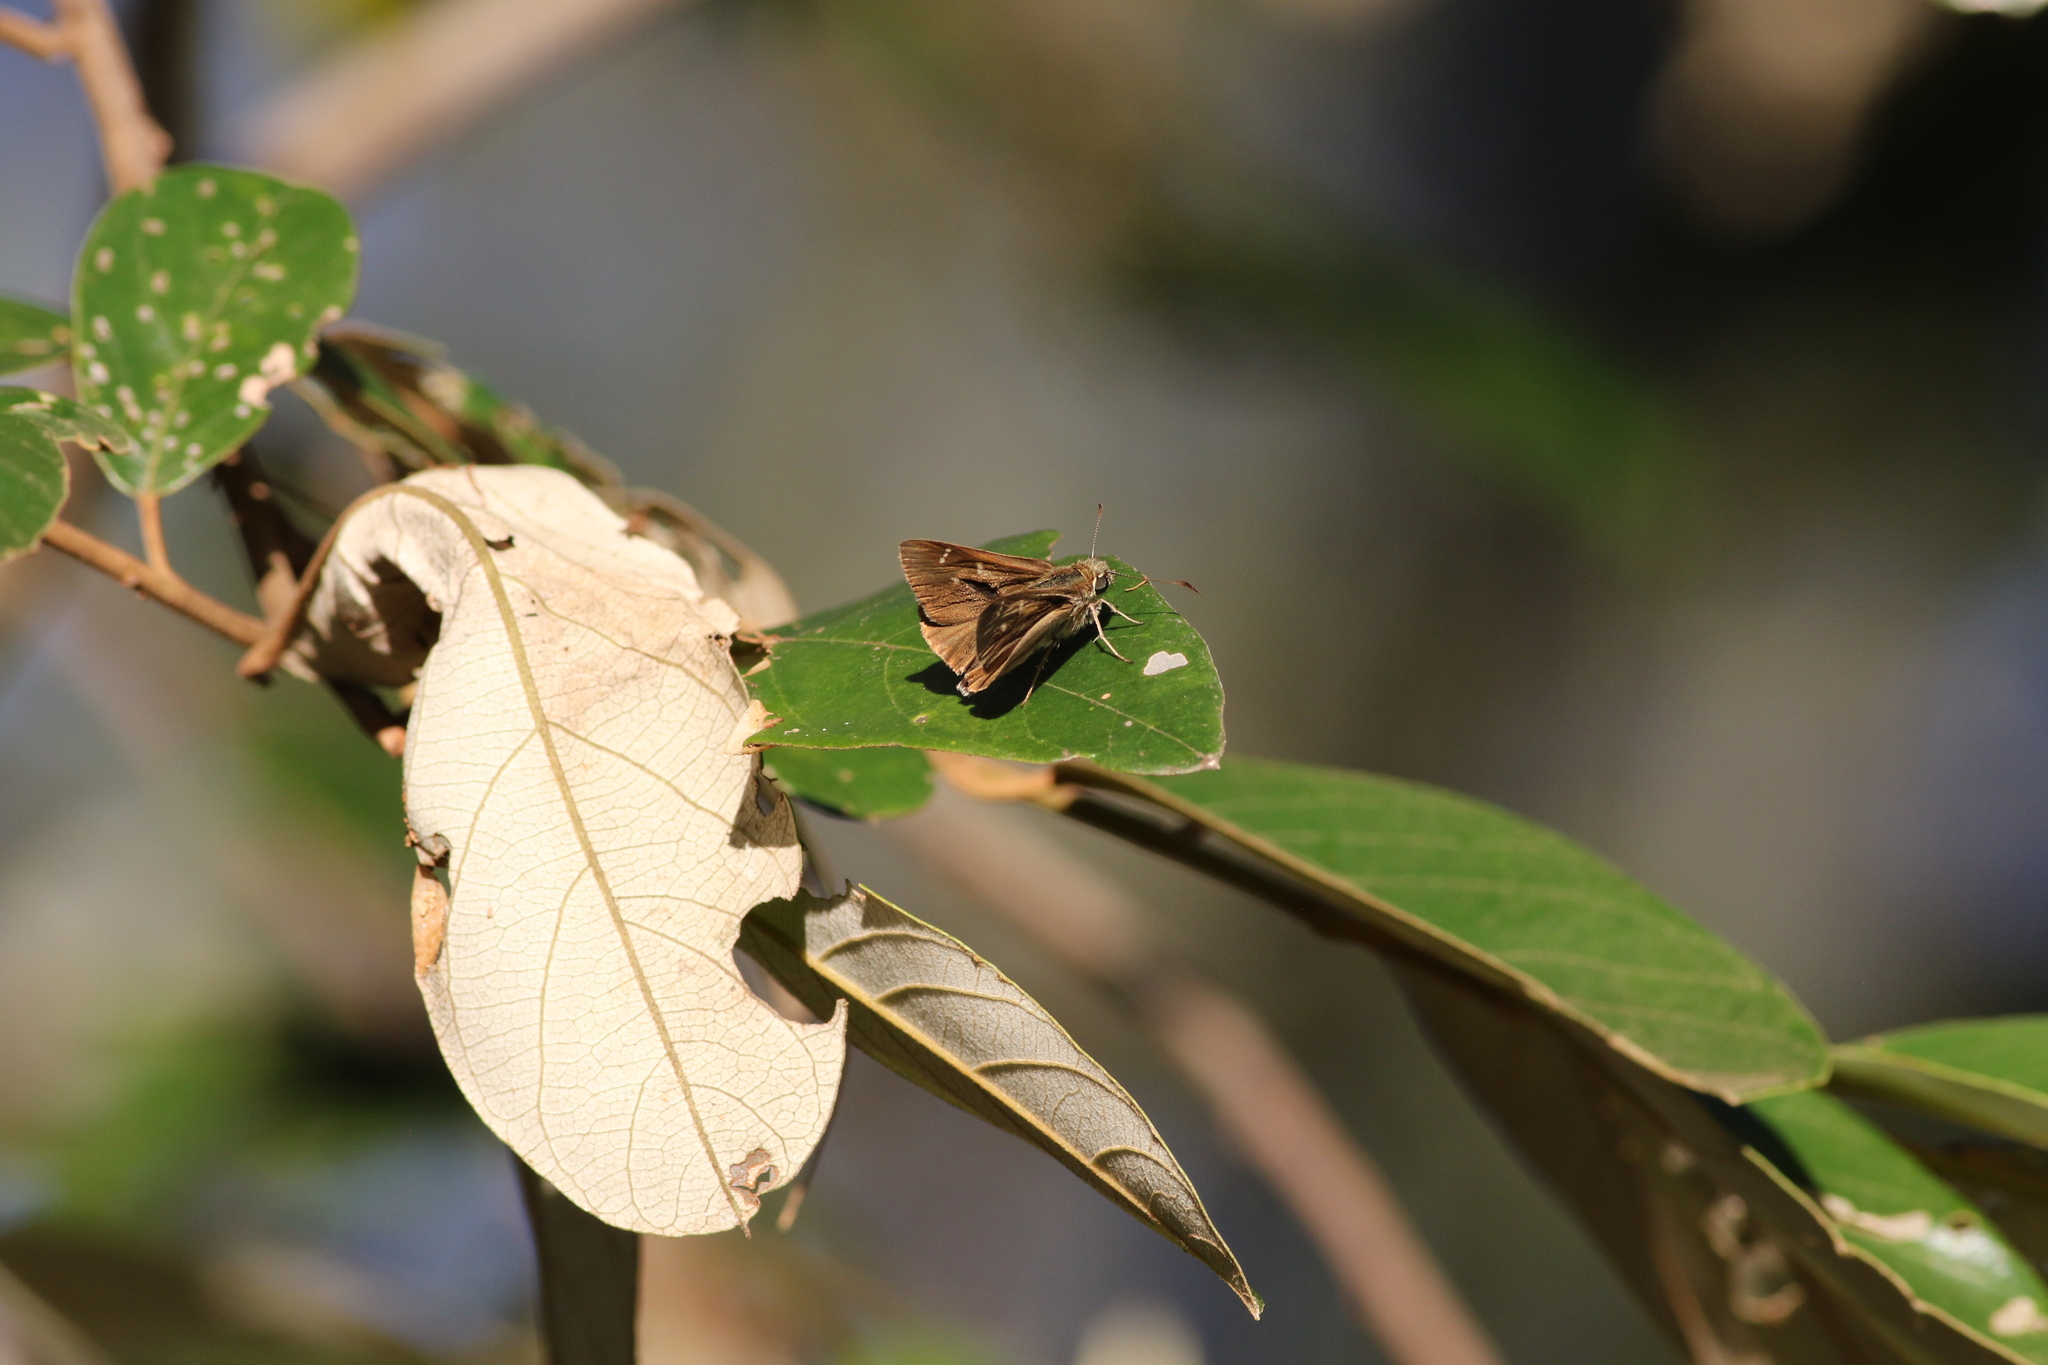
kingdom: Animalia
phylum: Arthropoda
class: Insecta
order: Lepidoptera
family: Hesperiidae
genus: Toxidia
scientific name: Toxidia
